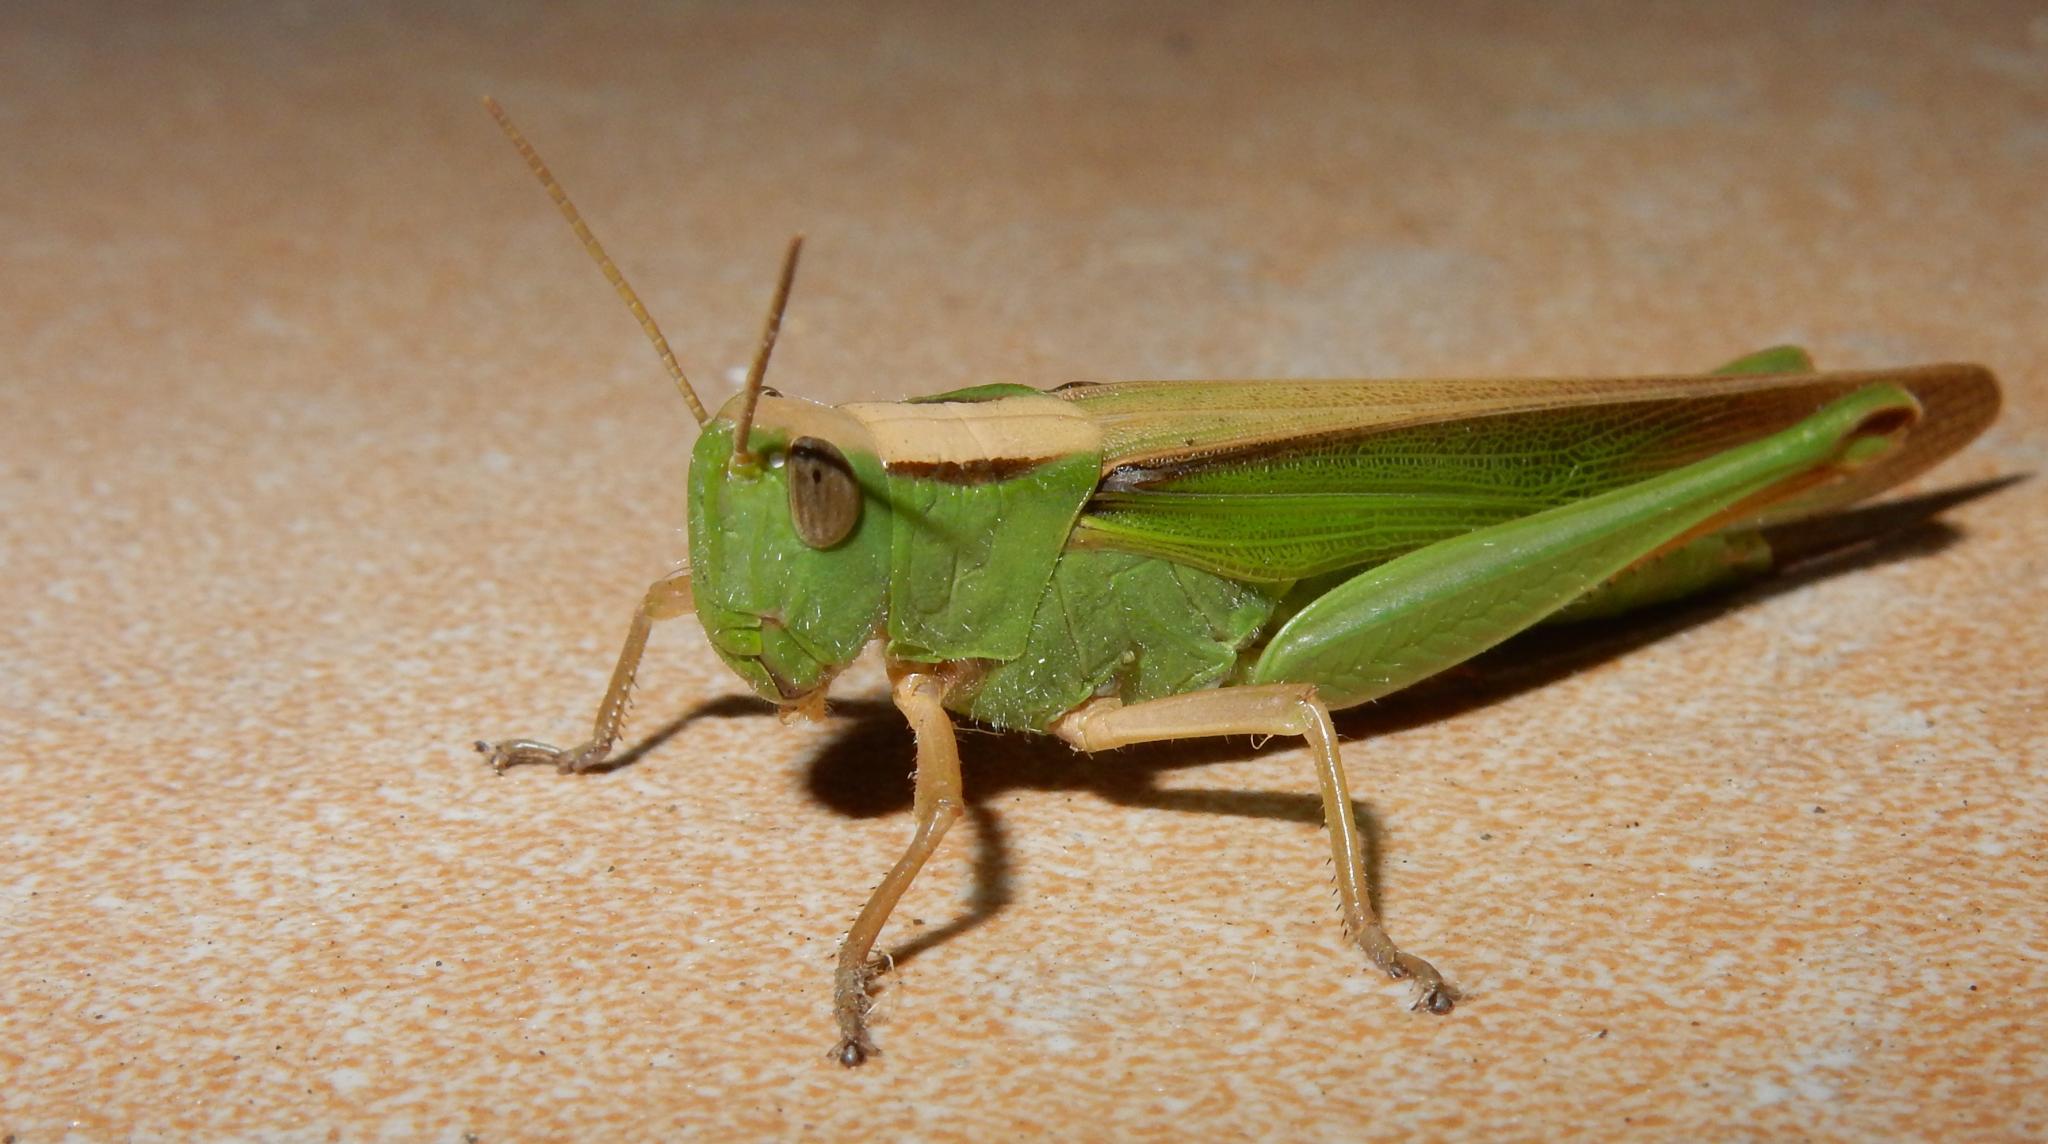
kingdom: Animalia
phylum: Arthropoda
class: Insecta
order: Orthoptera
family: Acrididae
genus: Paracinema
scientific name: Paracinema tricolor
